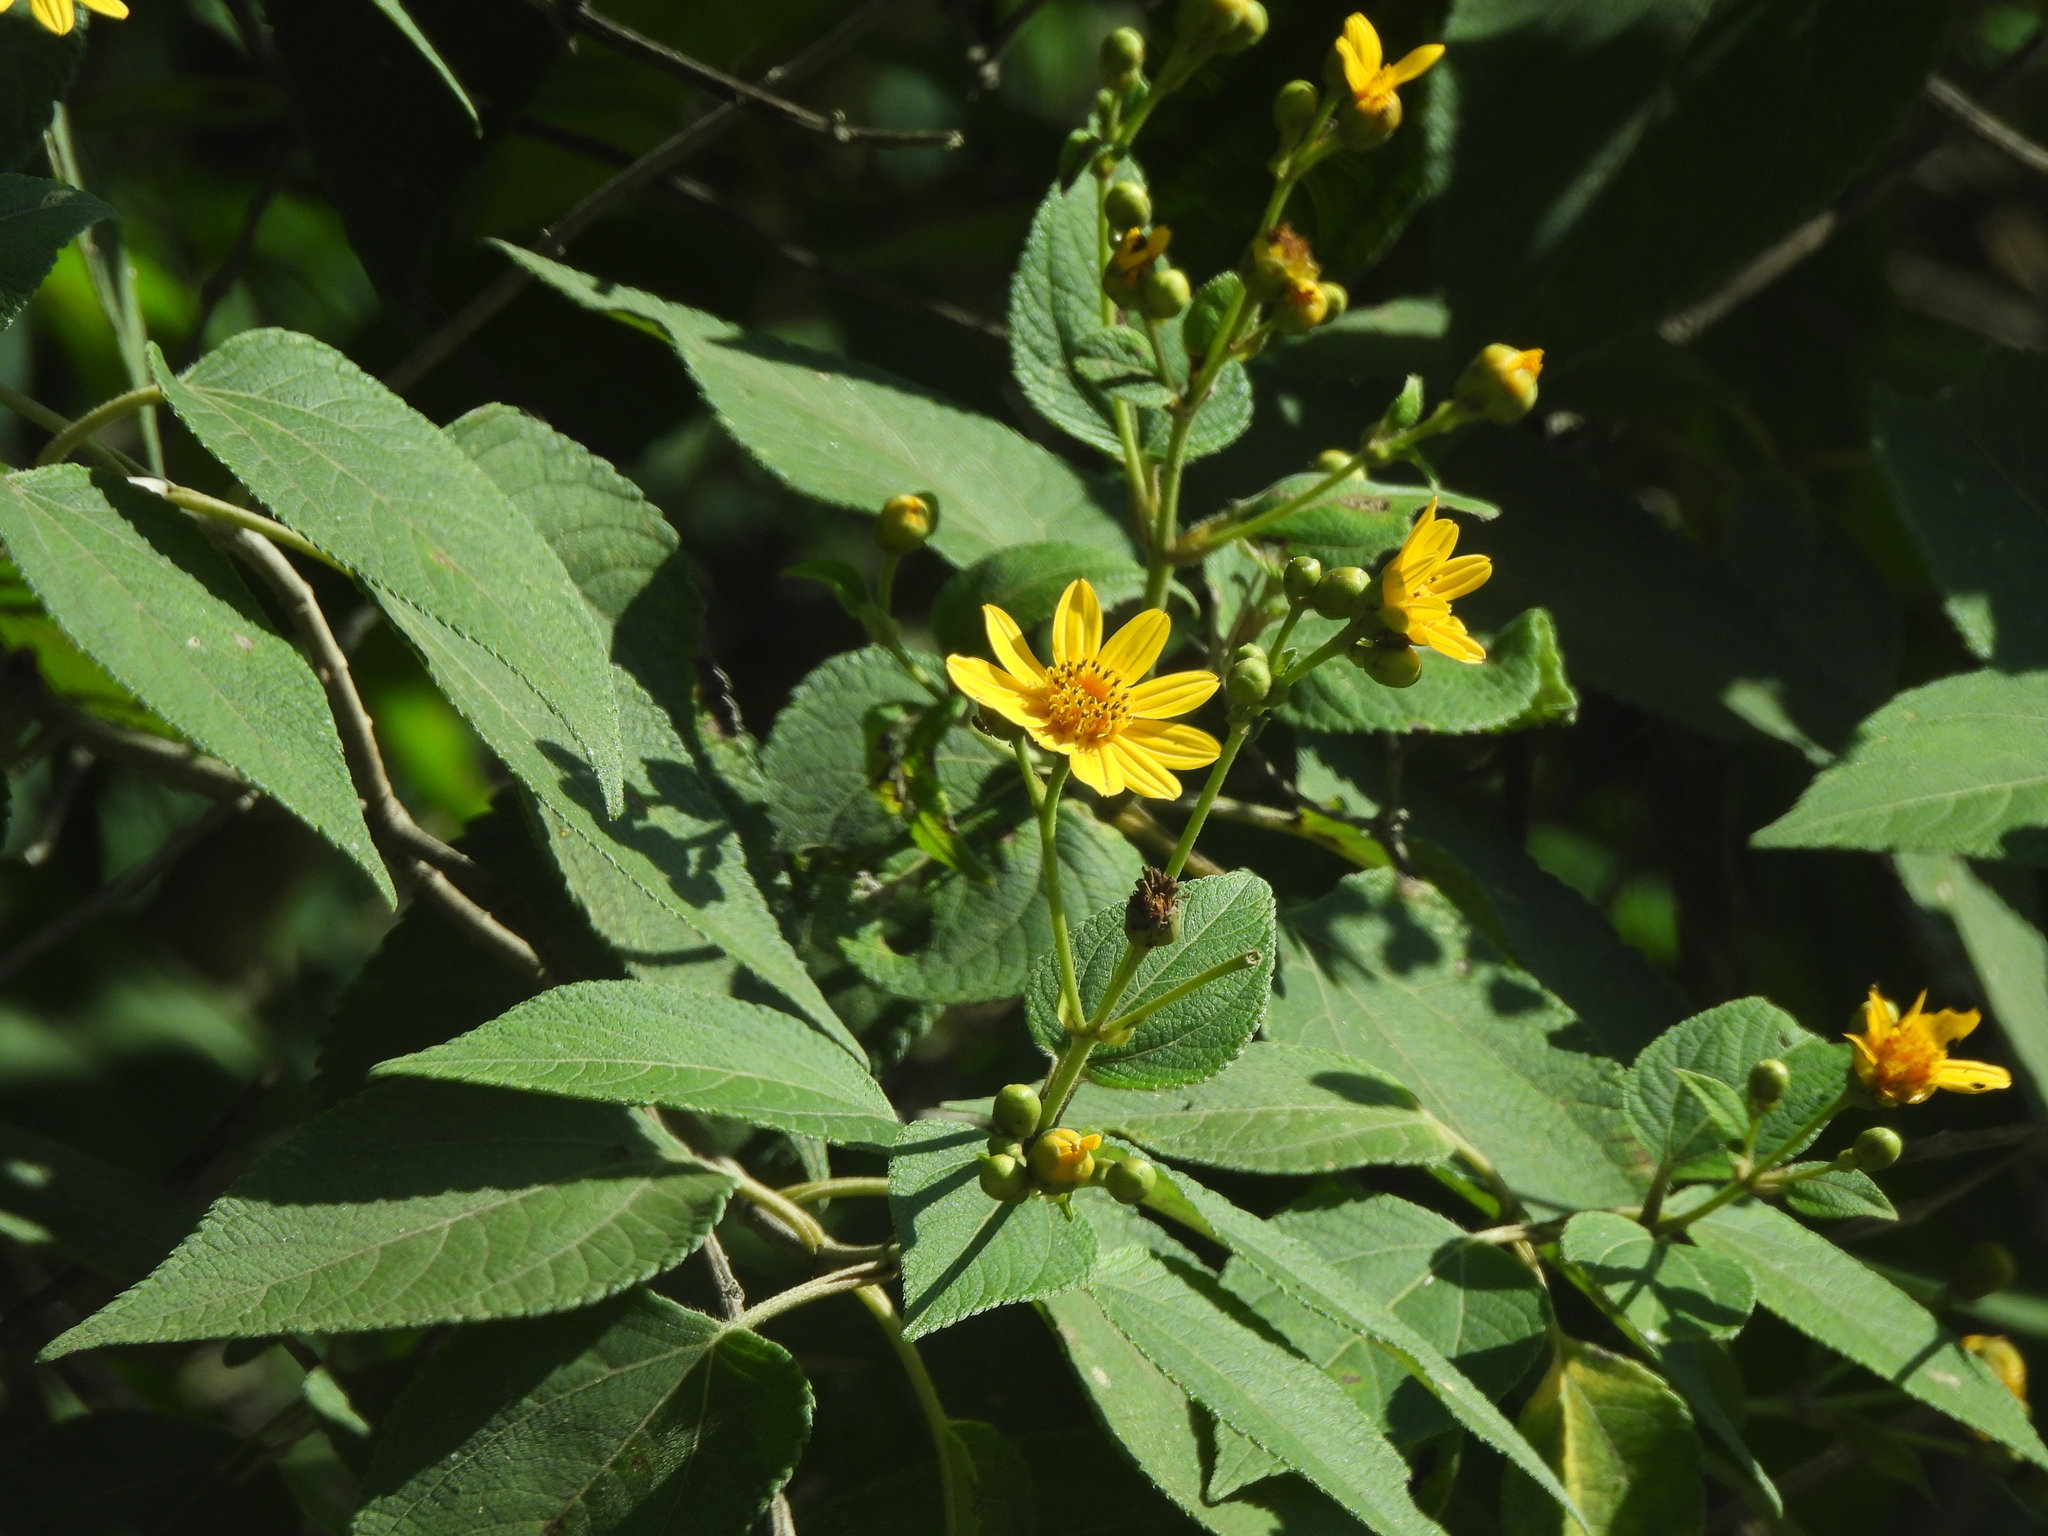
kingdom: Plantae
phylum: Tracheophyta
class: Magnoliopsida
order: Asterales
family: Asteraceae
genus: Lasianthaea
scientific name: Lasianthaea fruticosa
